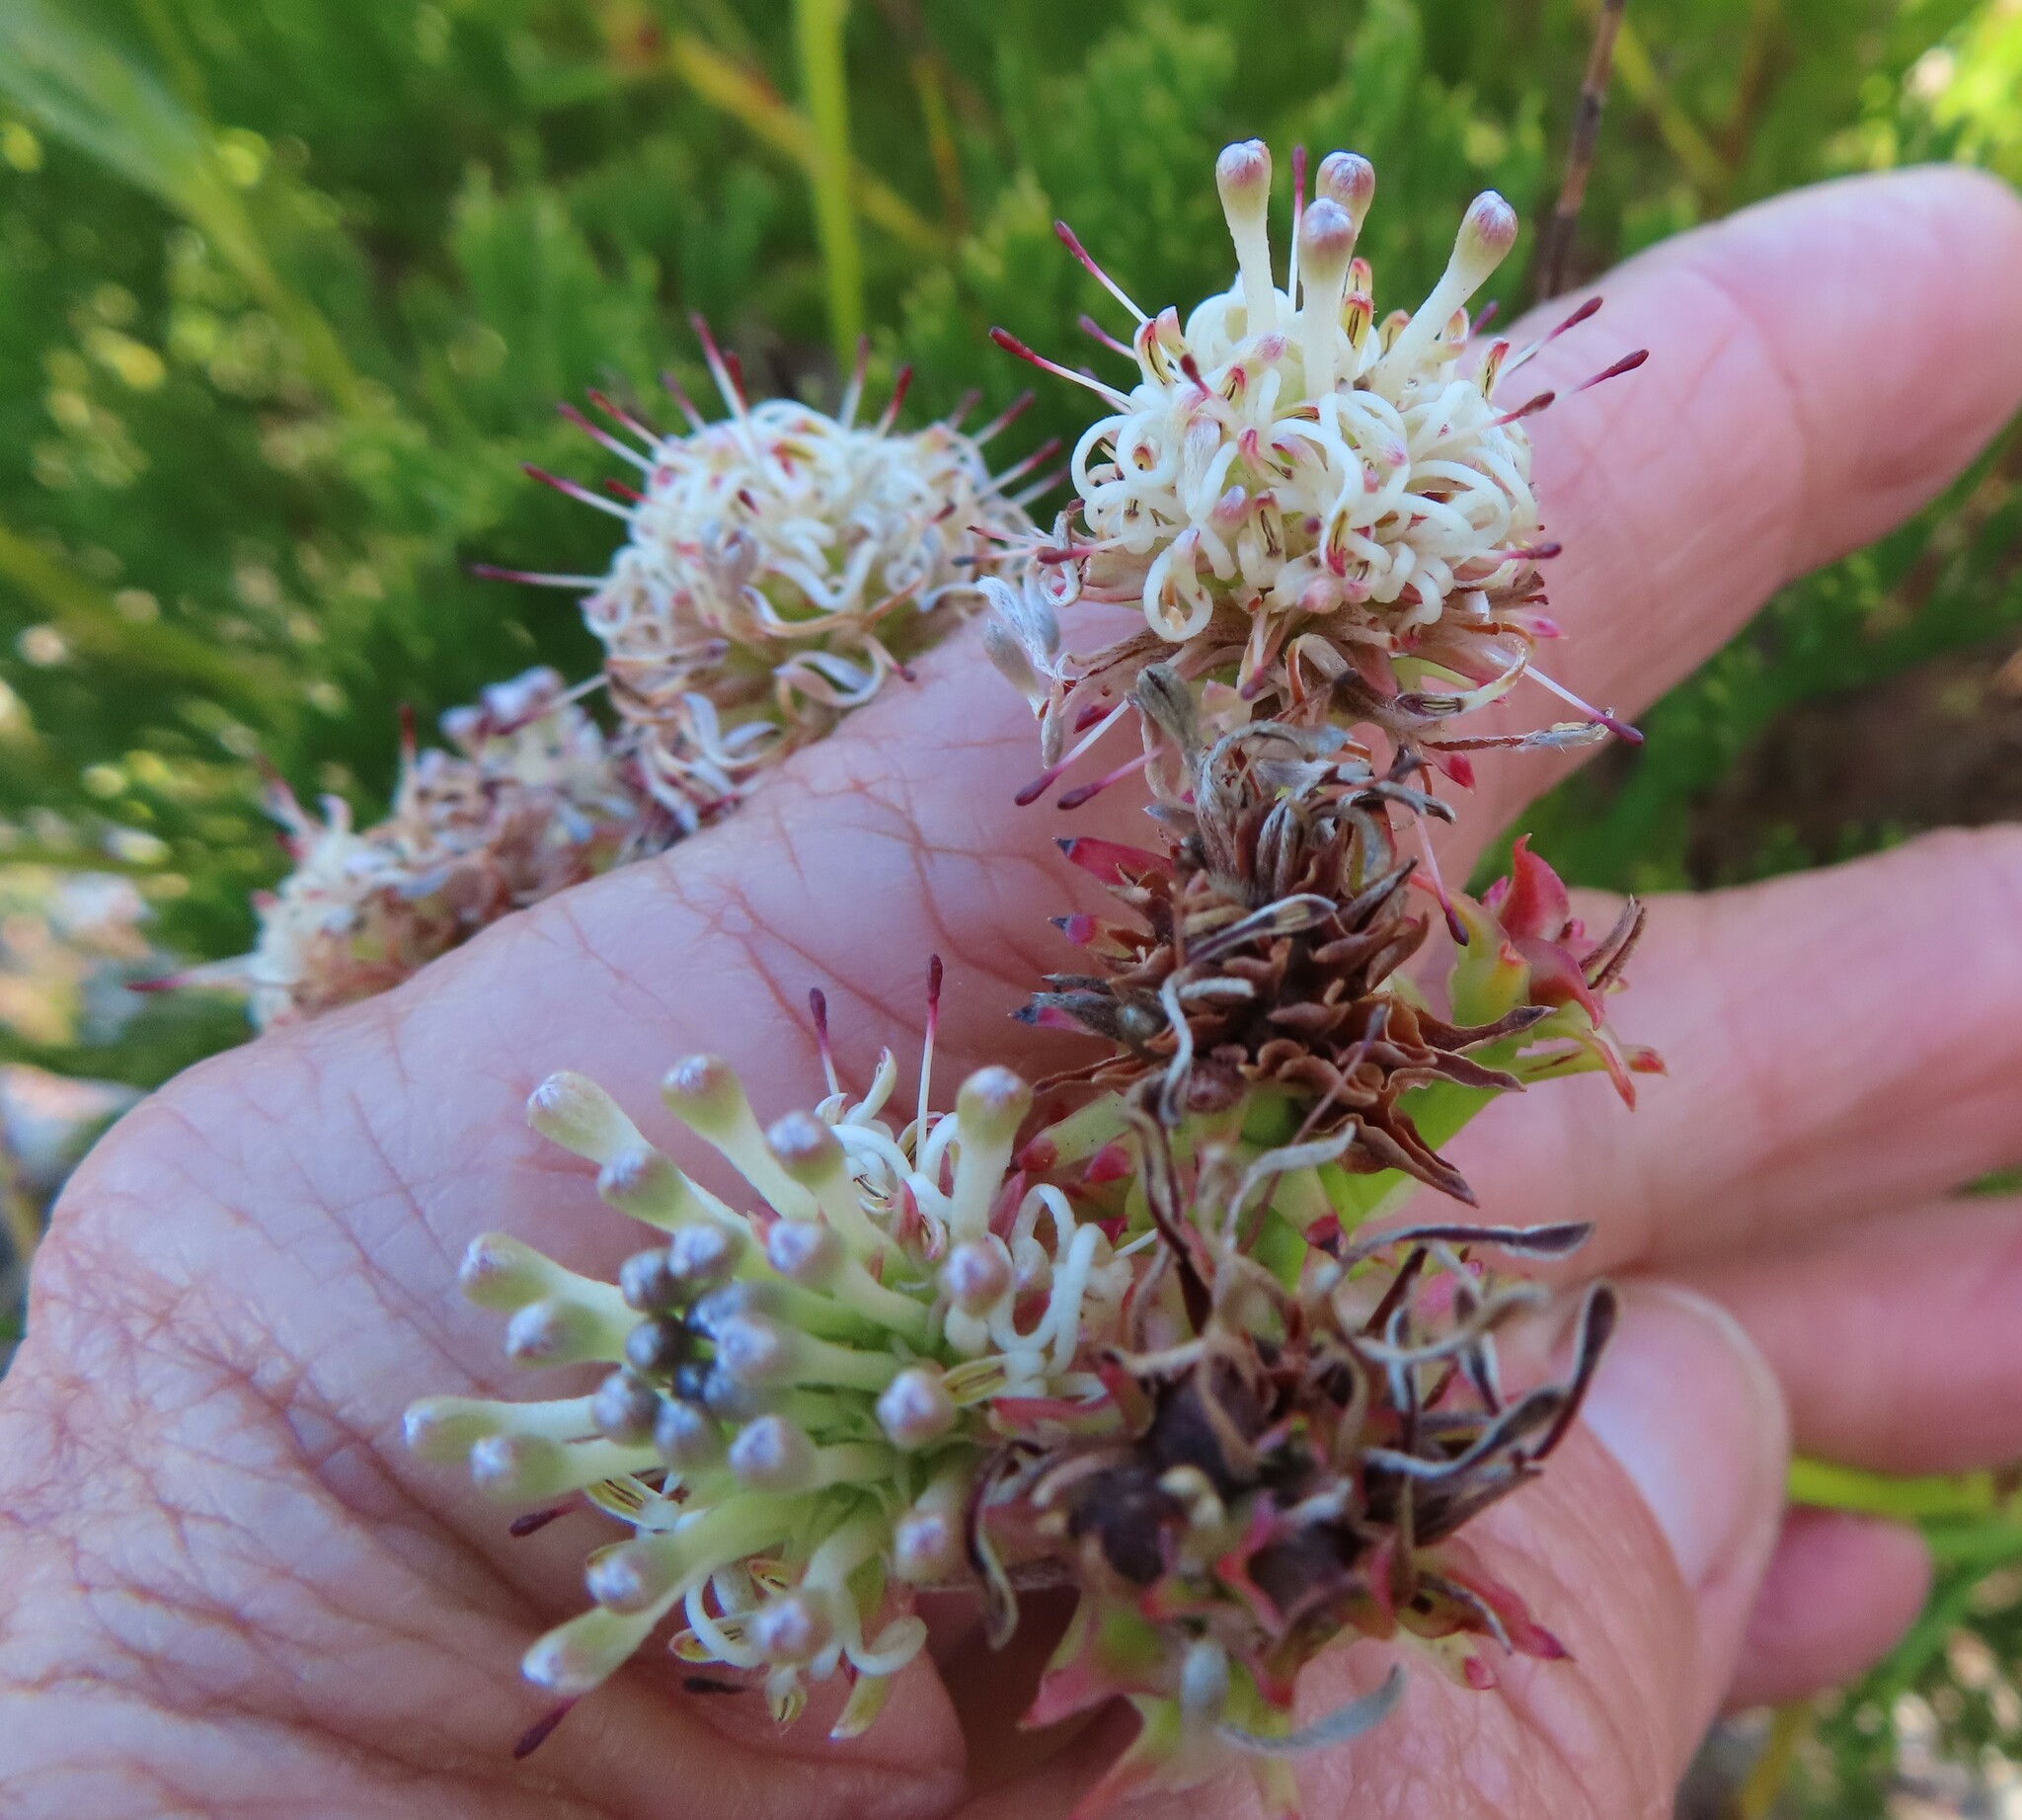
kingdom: Plantae
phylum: Tracheophyta
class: Magnoliopsida
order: Proteales
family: Proteaceae
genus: Serruria
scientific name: Serruria elongata
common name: Long-stalk spiderhead
